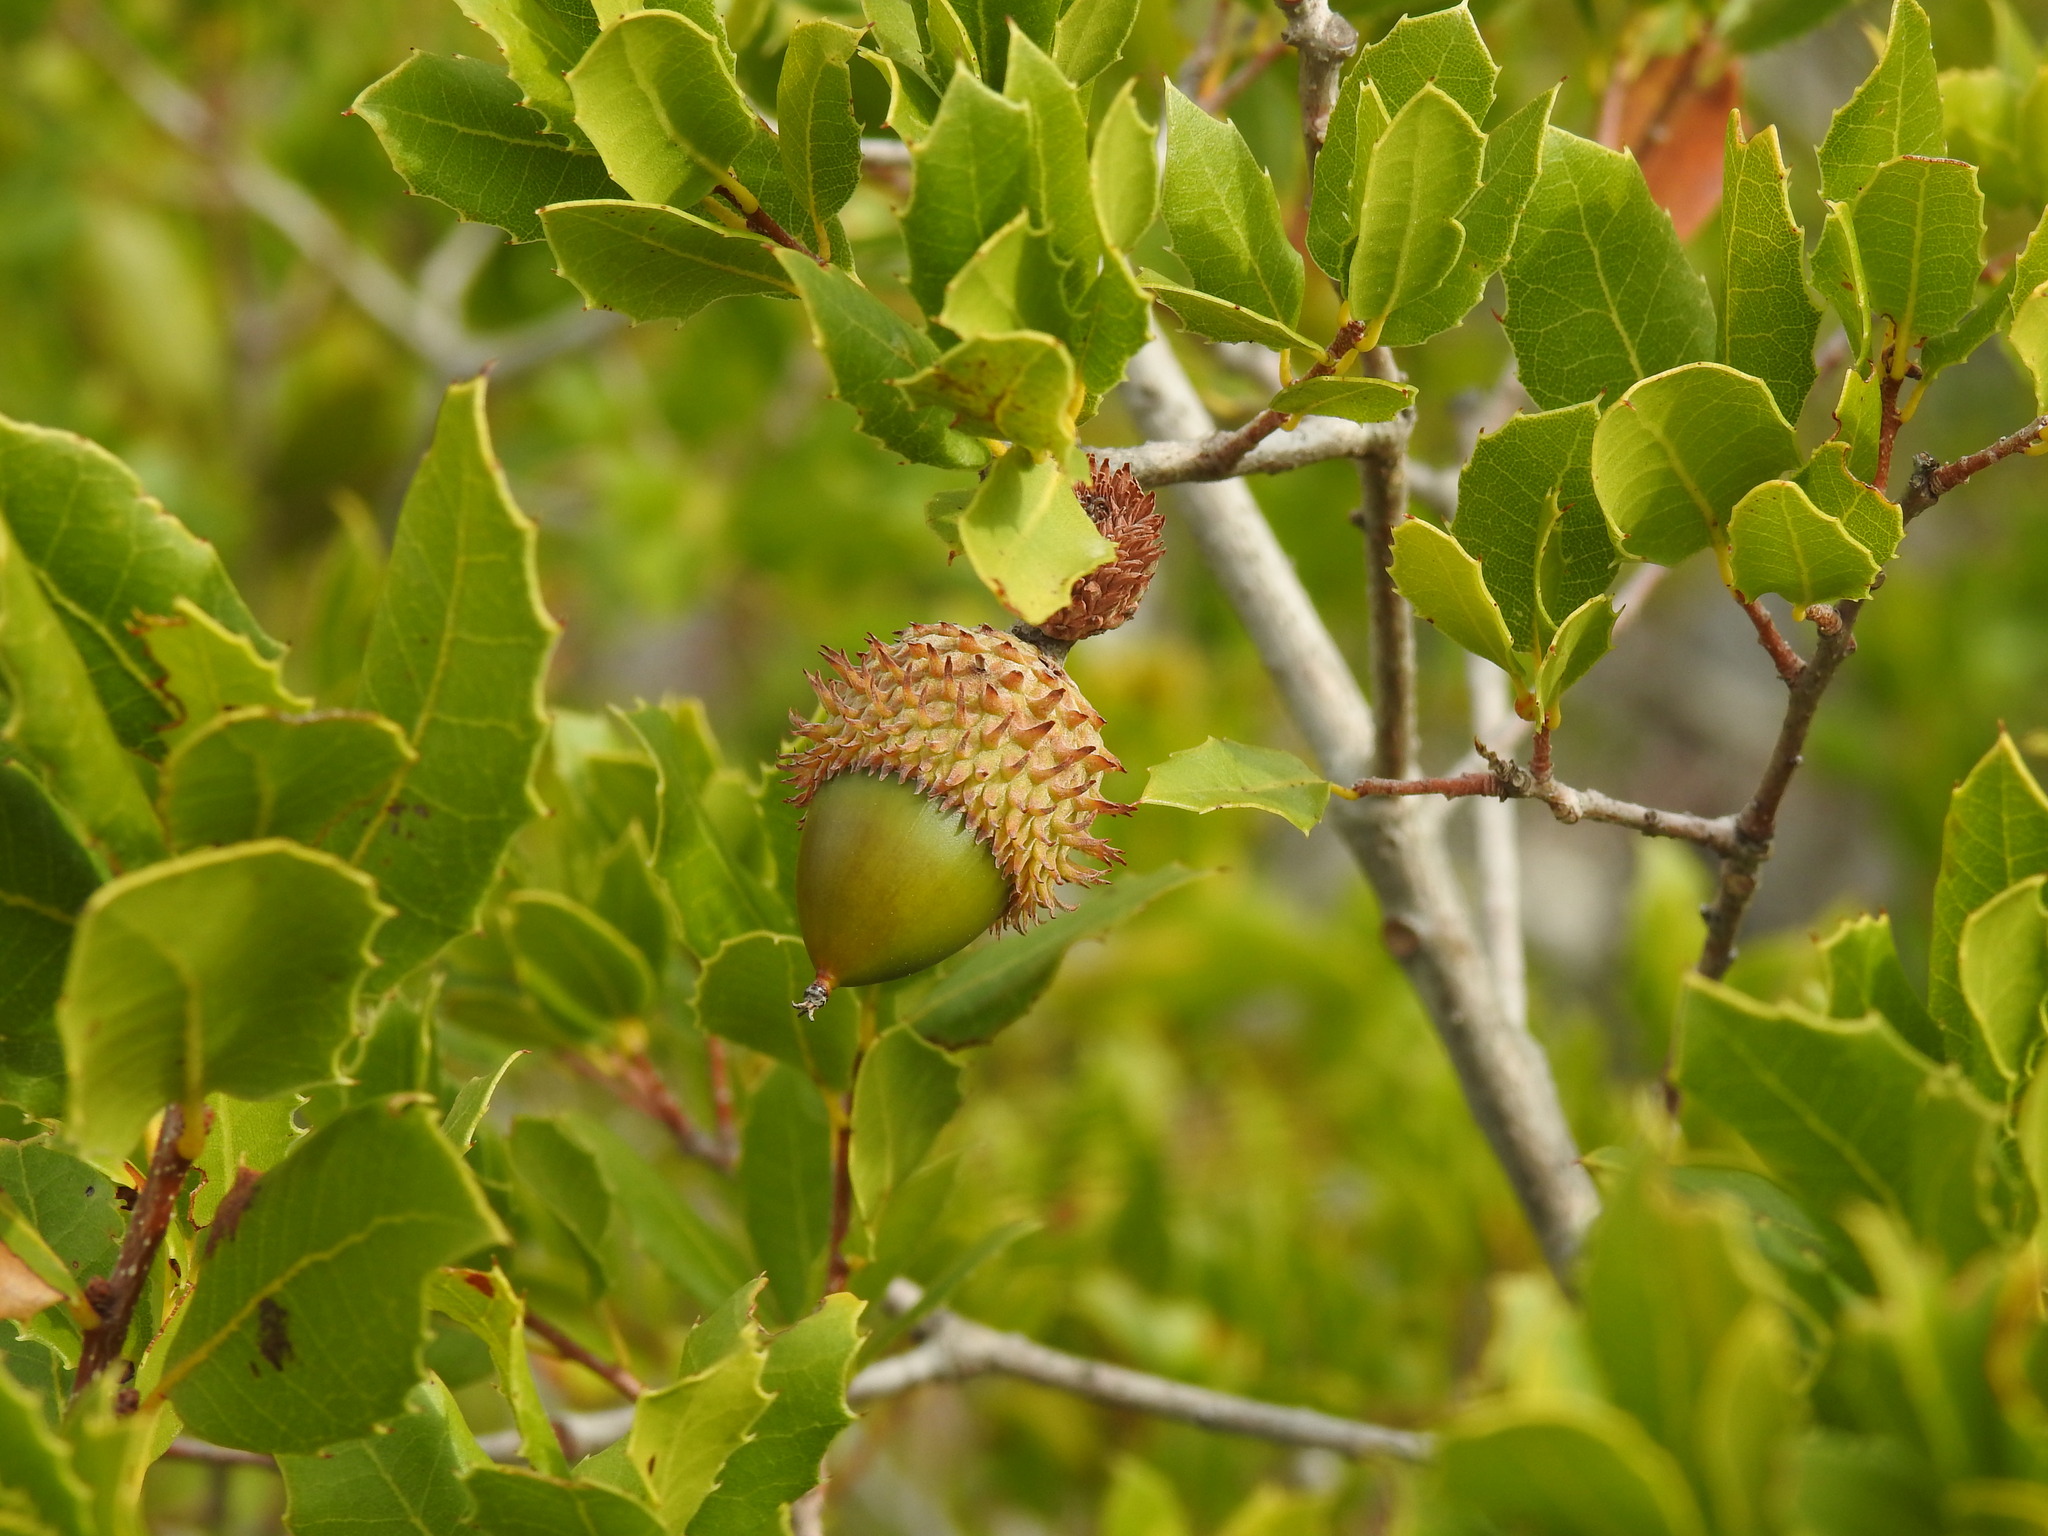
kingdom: Plantae
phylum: Tracheophyta
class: Magnoliopsida
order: Fagales
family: Fagaceae
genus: Quercus
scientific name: Quercus coccifera
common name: Kermes oak
